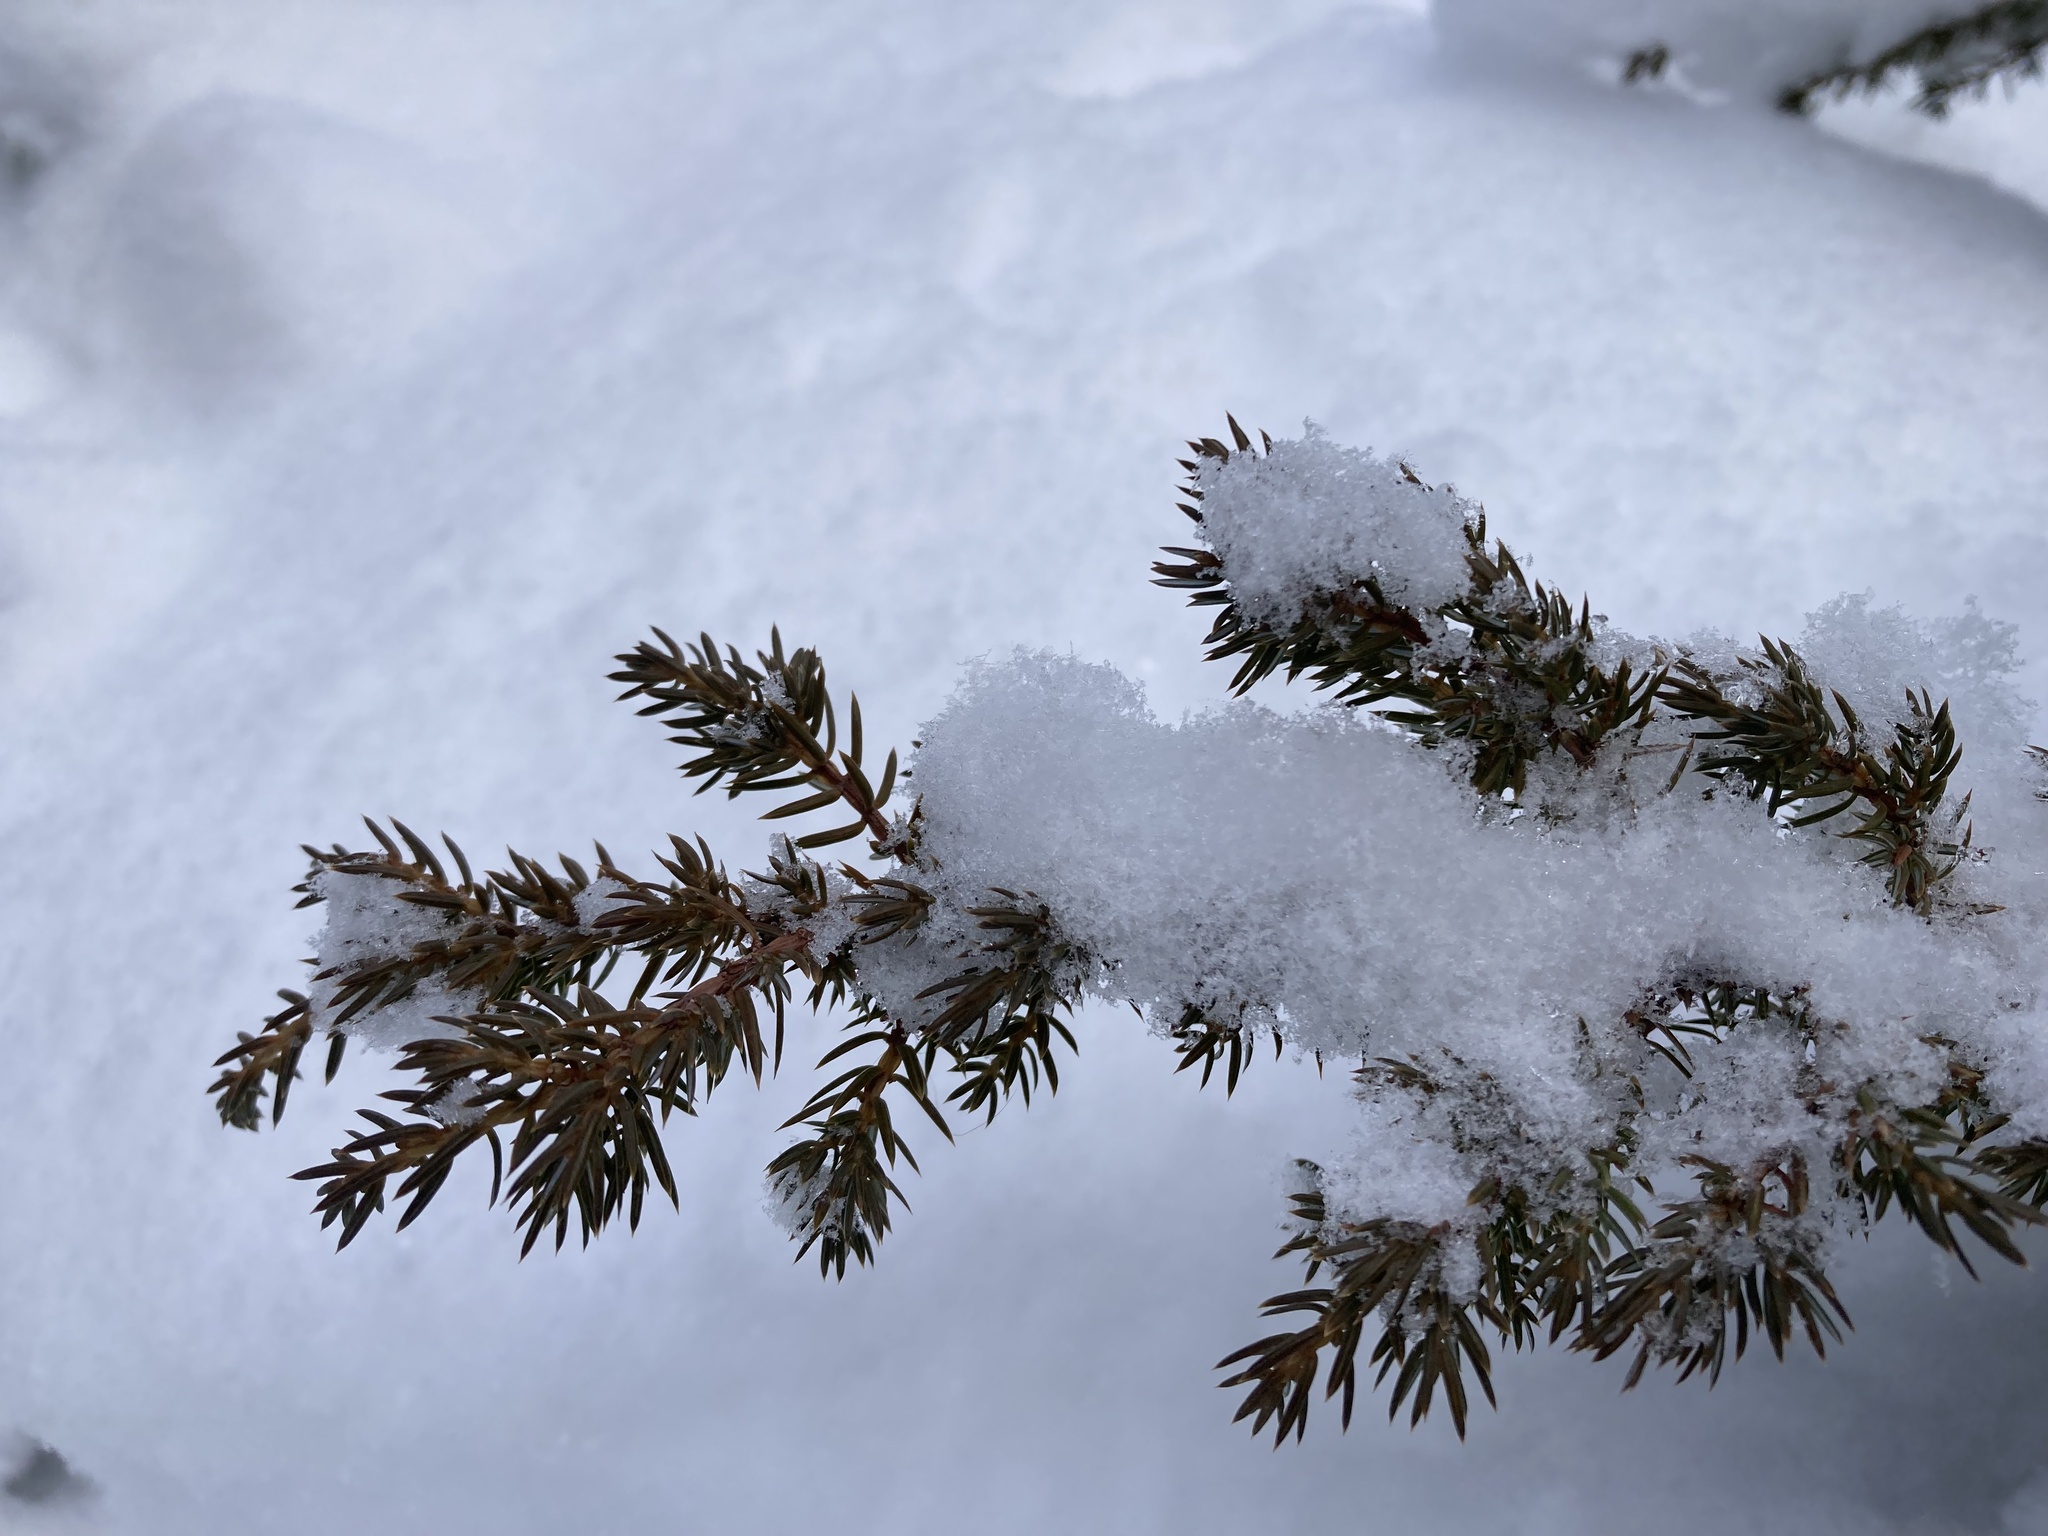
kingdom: Plantae
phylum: Tracheophyta
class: Pinopsida
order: Pinales
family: Cupressaceae
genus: Juniperus
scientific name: Juniperus communis
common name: Common juniper
